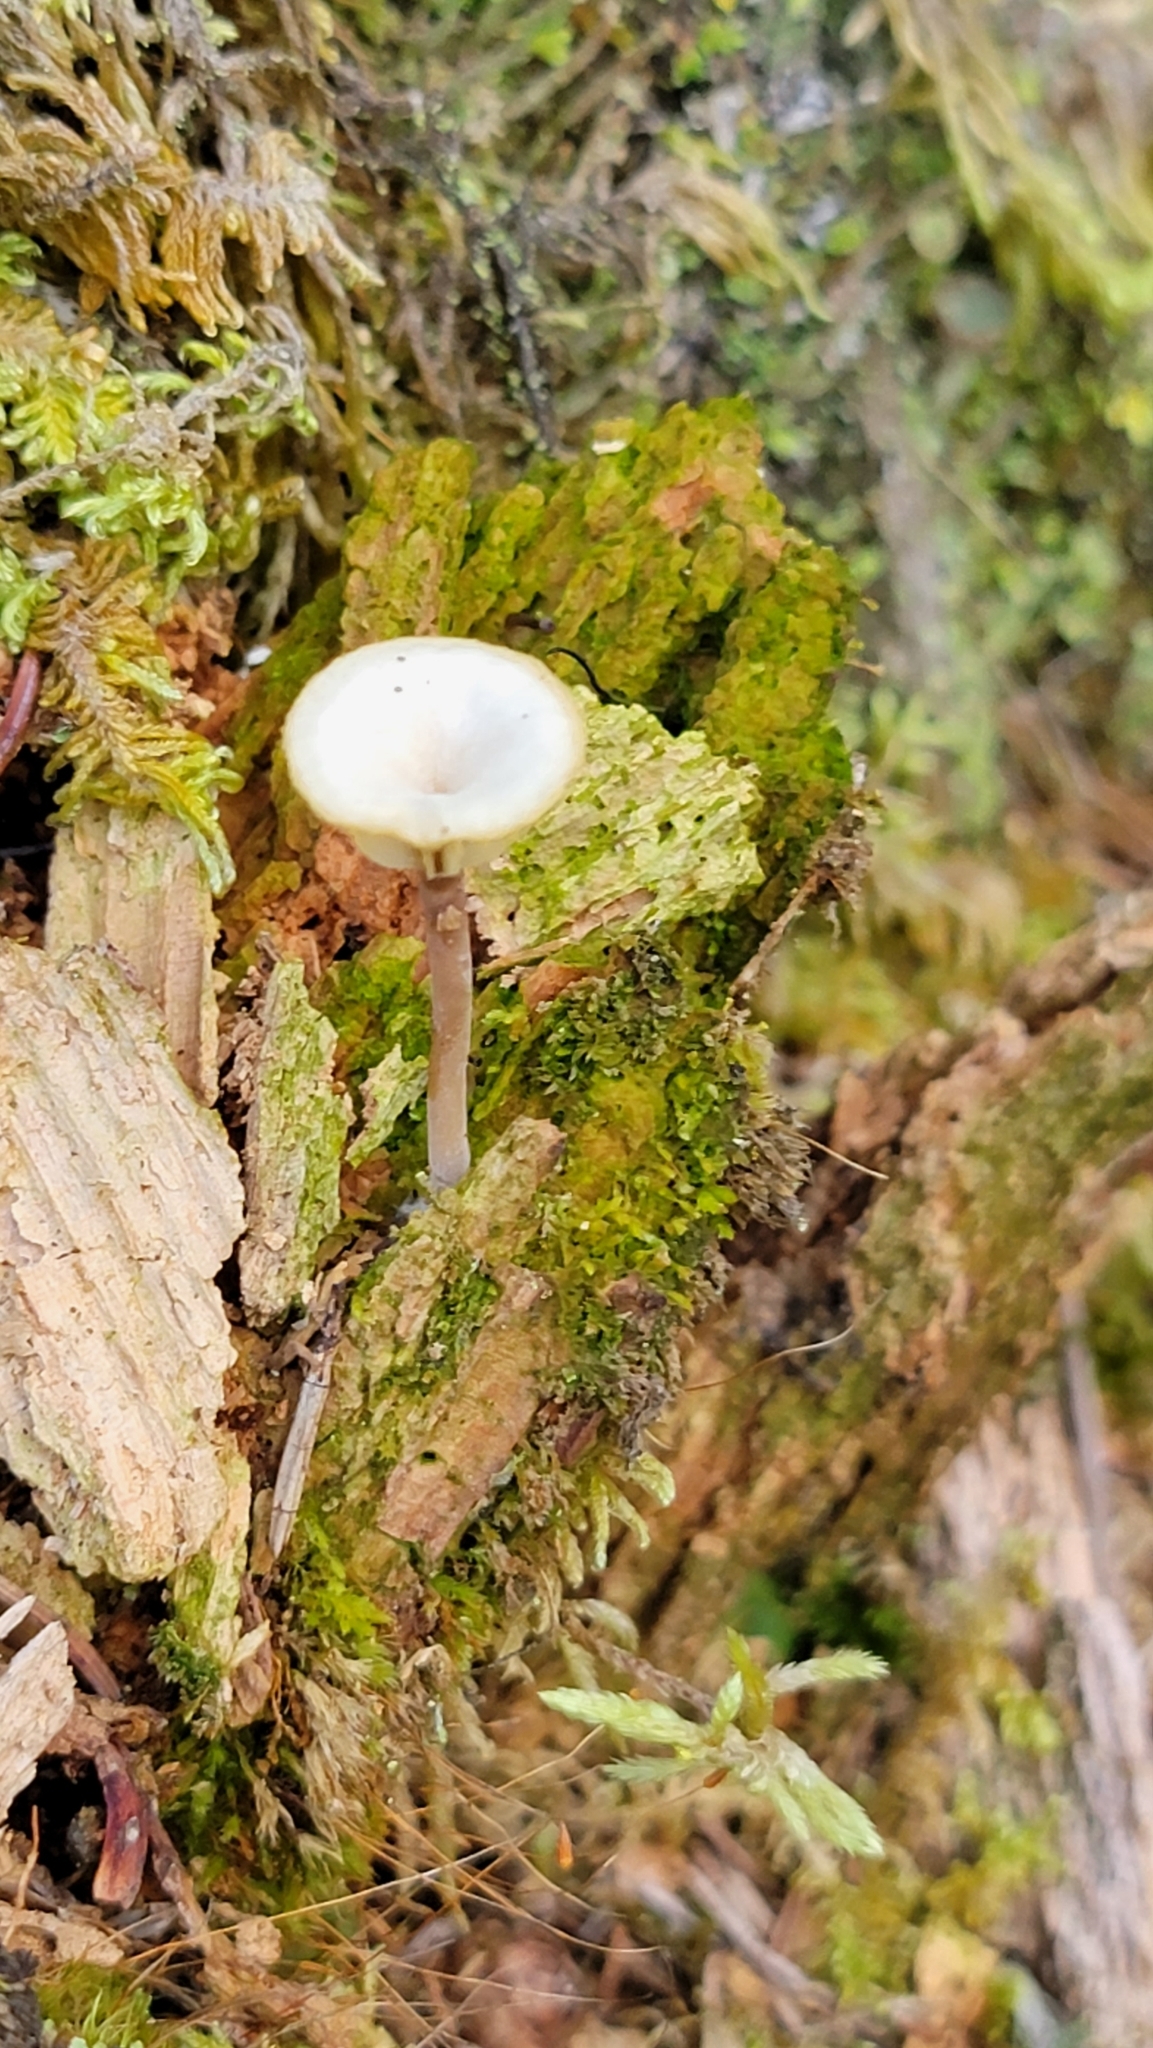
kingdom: Fungi
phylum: Basidiomycota
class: Agaricomycetes
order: Agaricales
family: Hygrophoraceae
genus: Lichenomphalia
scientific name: Lichenomphalia
